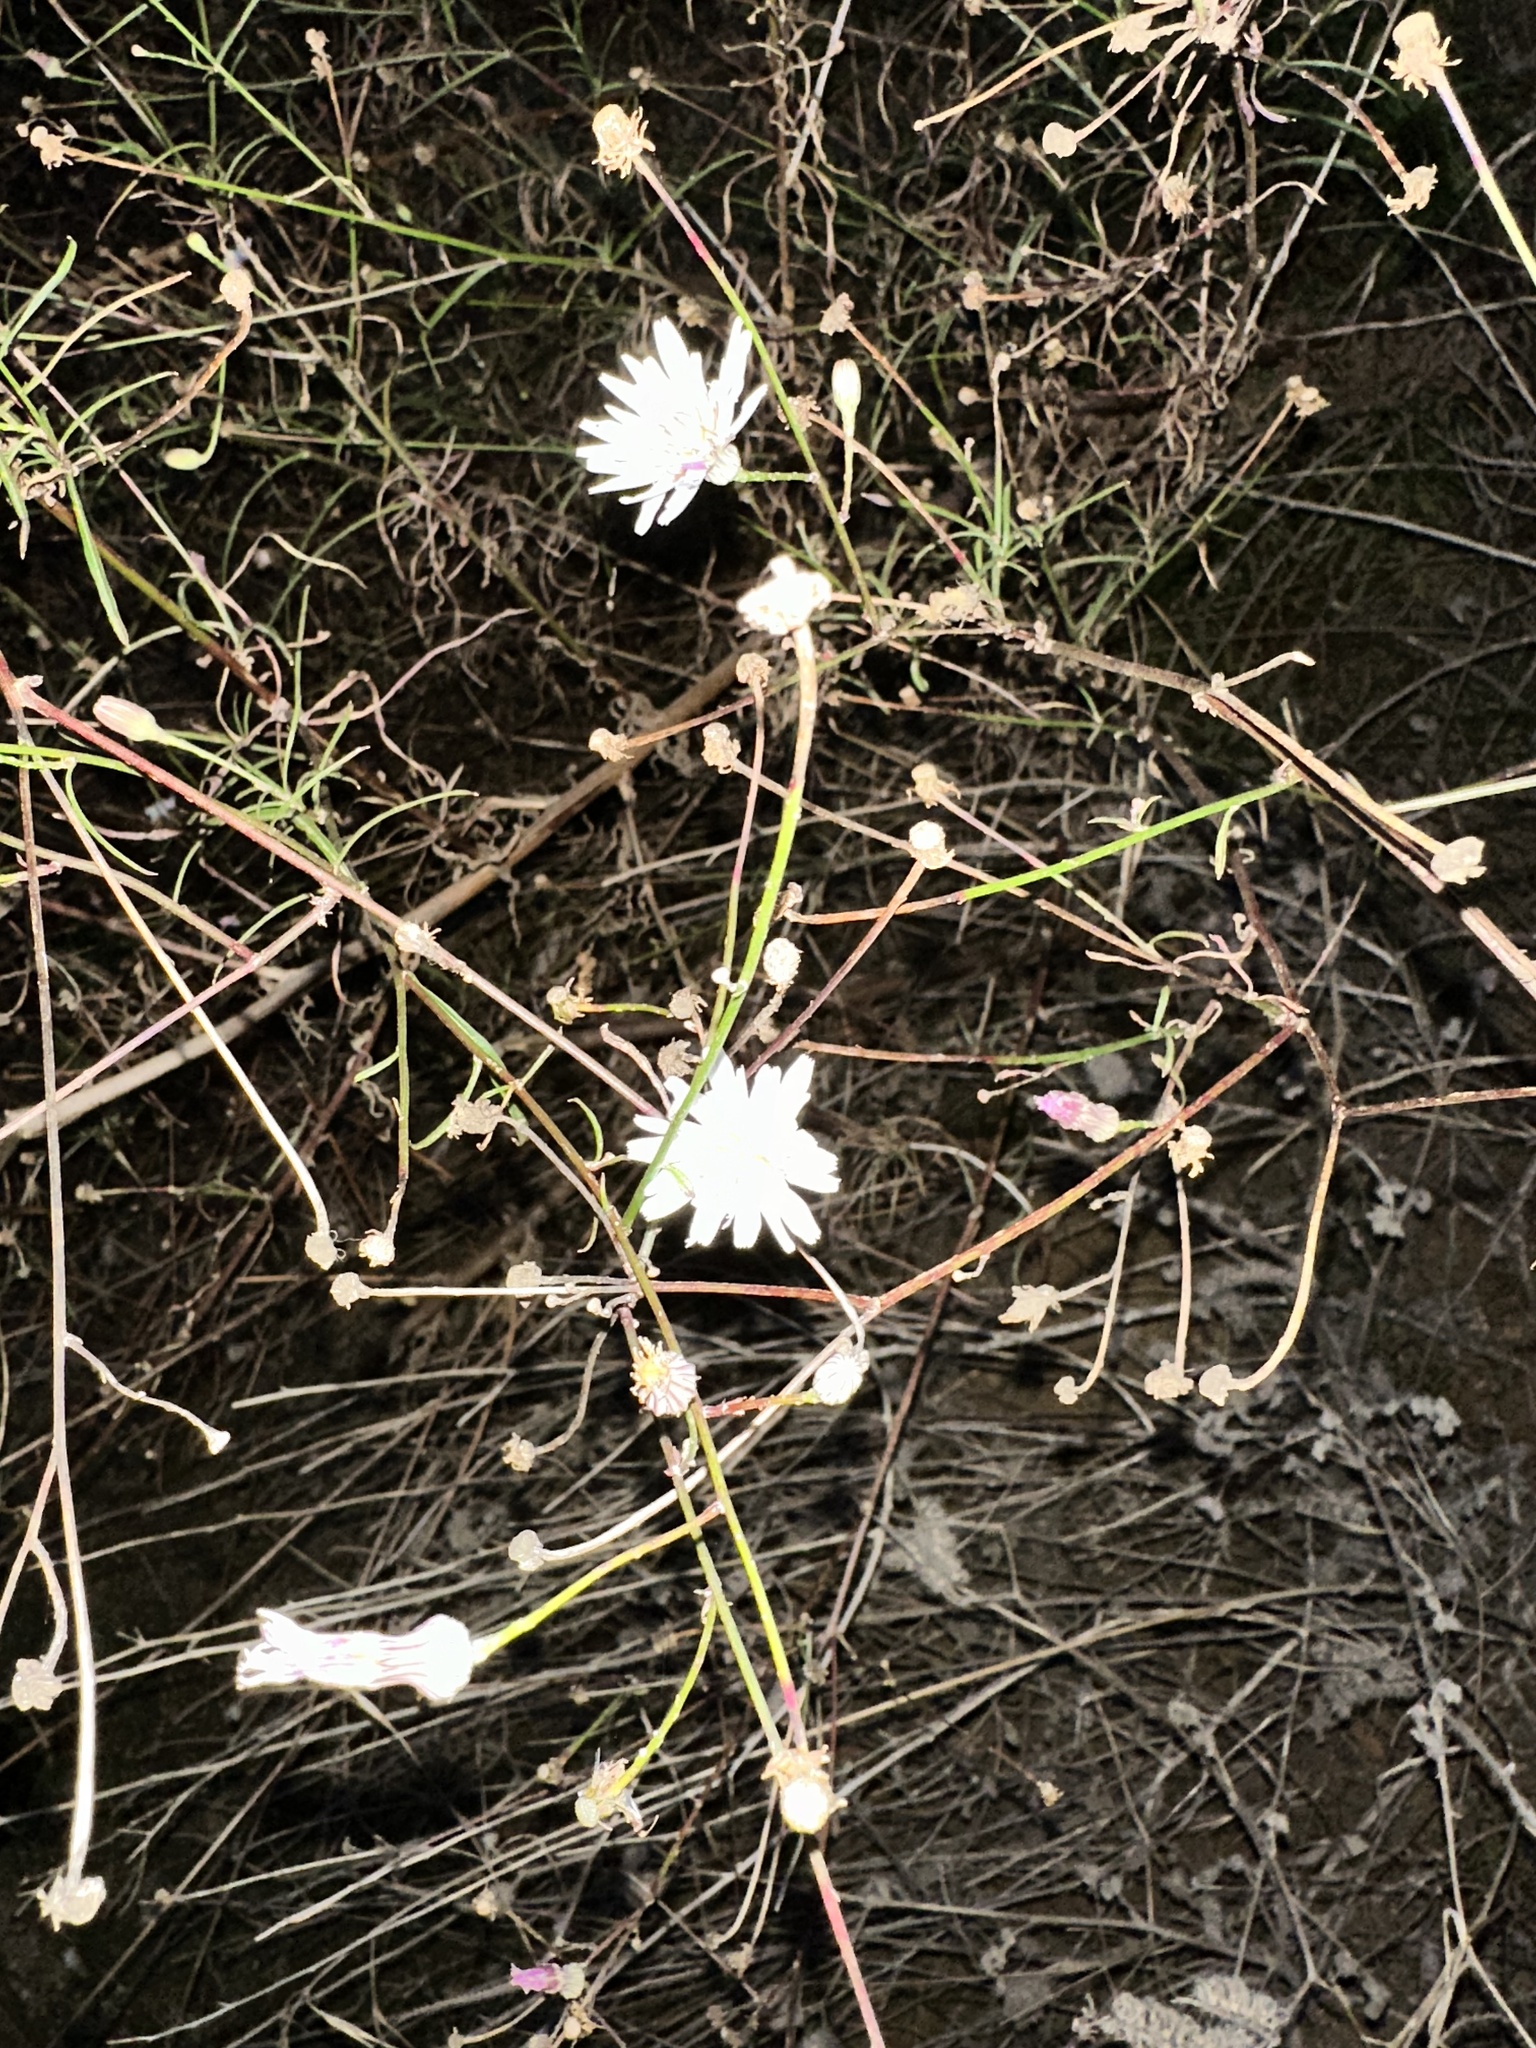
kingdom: Plantae
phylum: Tracheophyta
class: Magnoliopsida
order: Asterales
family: Asteraceae
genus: Malacothrix
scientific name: Malacothrix saxatilis
